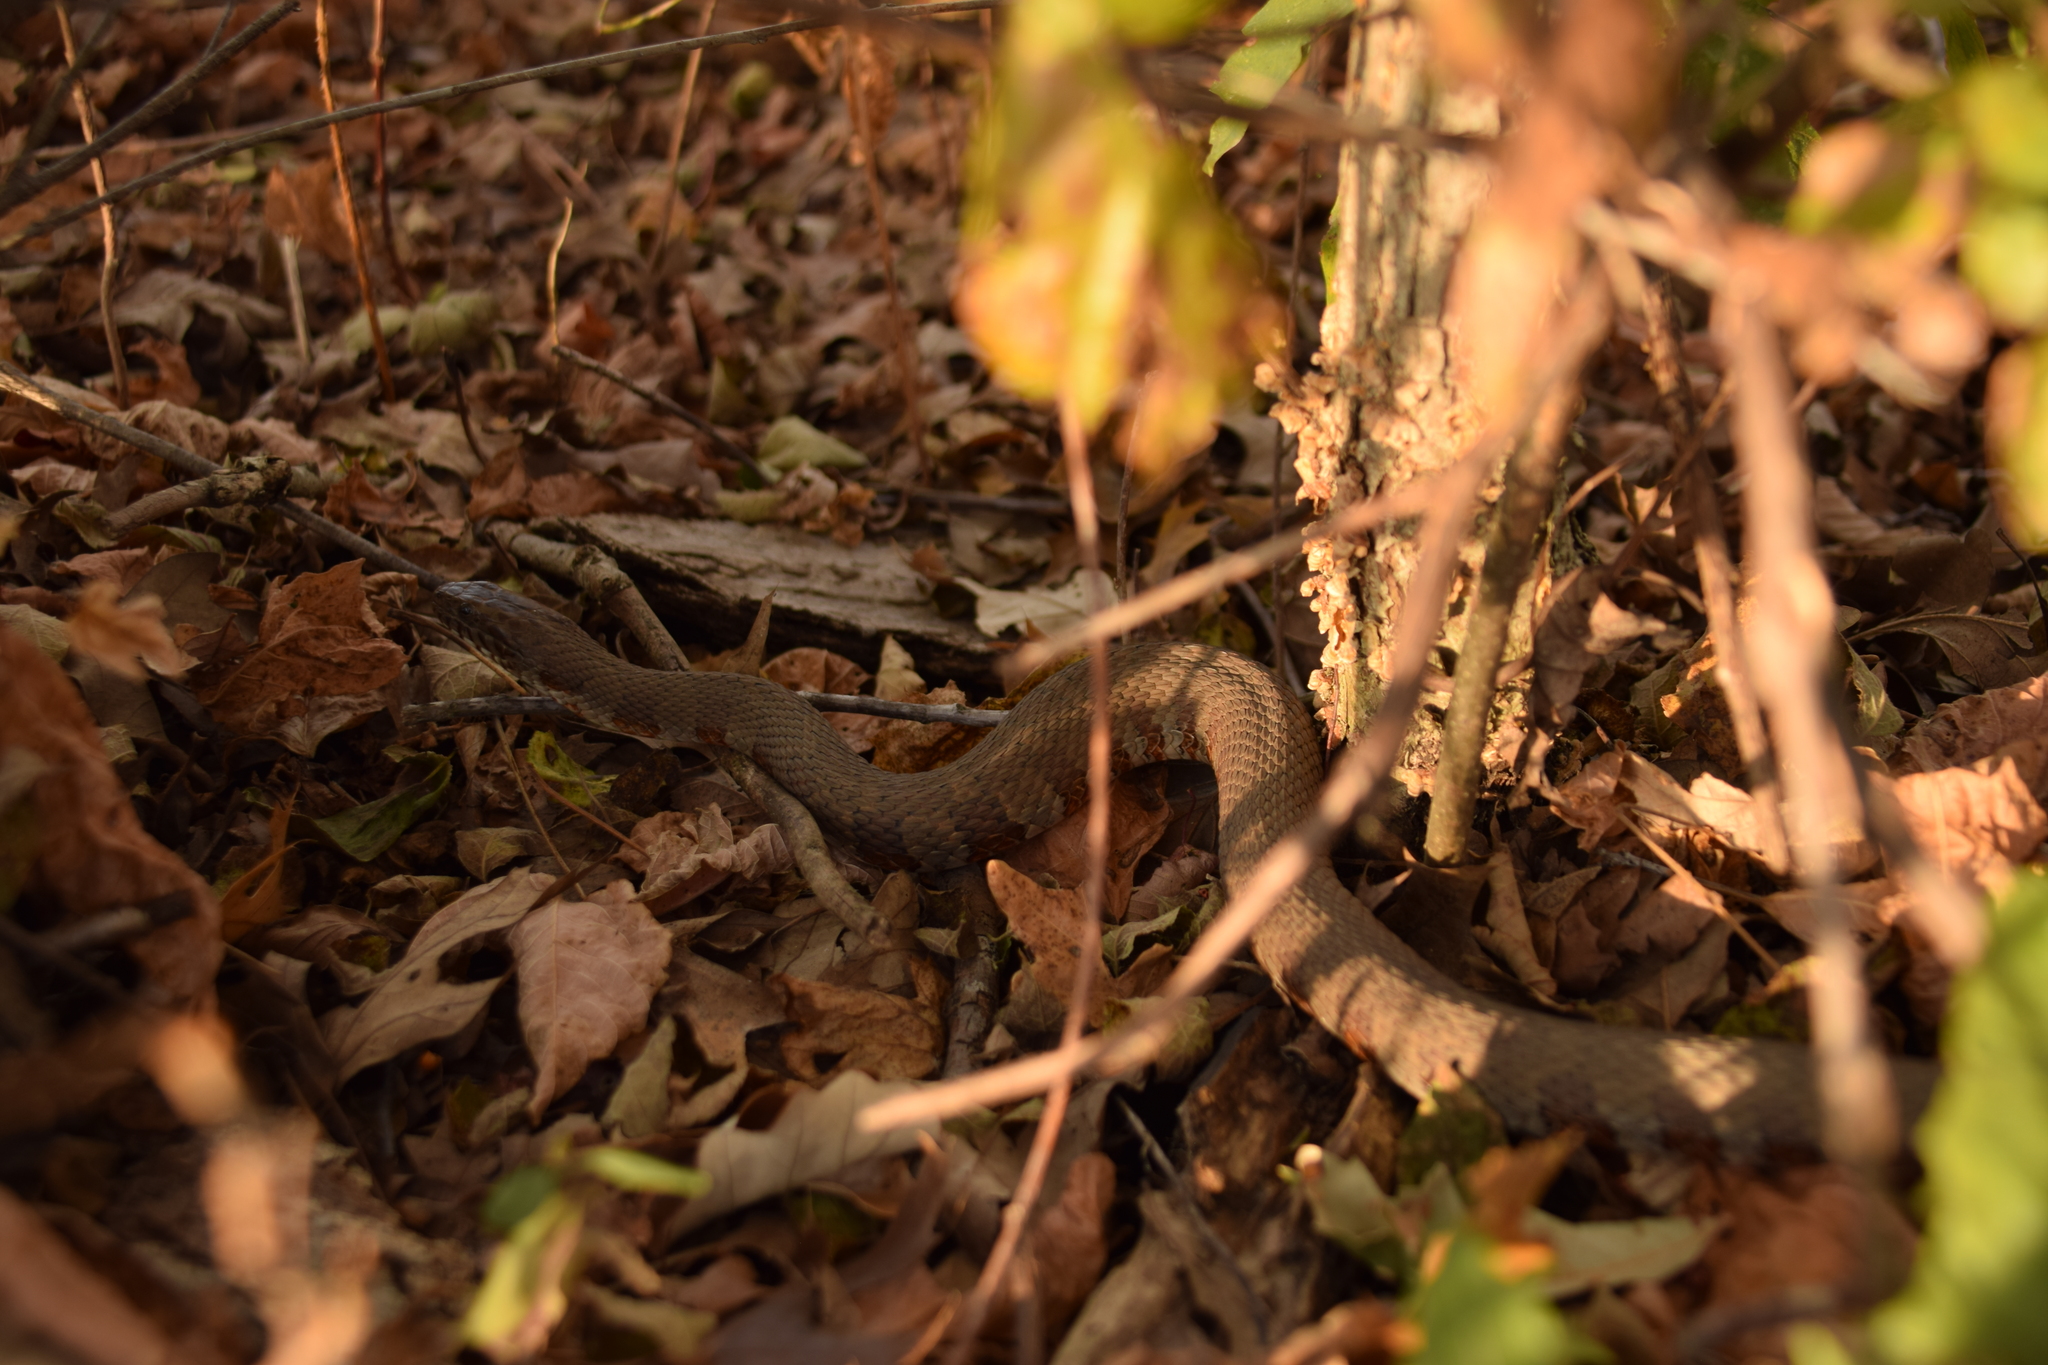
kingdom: Animalia
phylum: Chordata
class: Squamata
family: Colubridae
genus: Nerodia
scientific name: Nerodia sipedon
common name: Northern water snake
